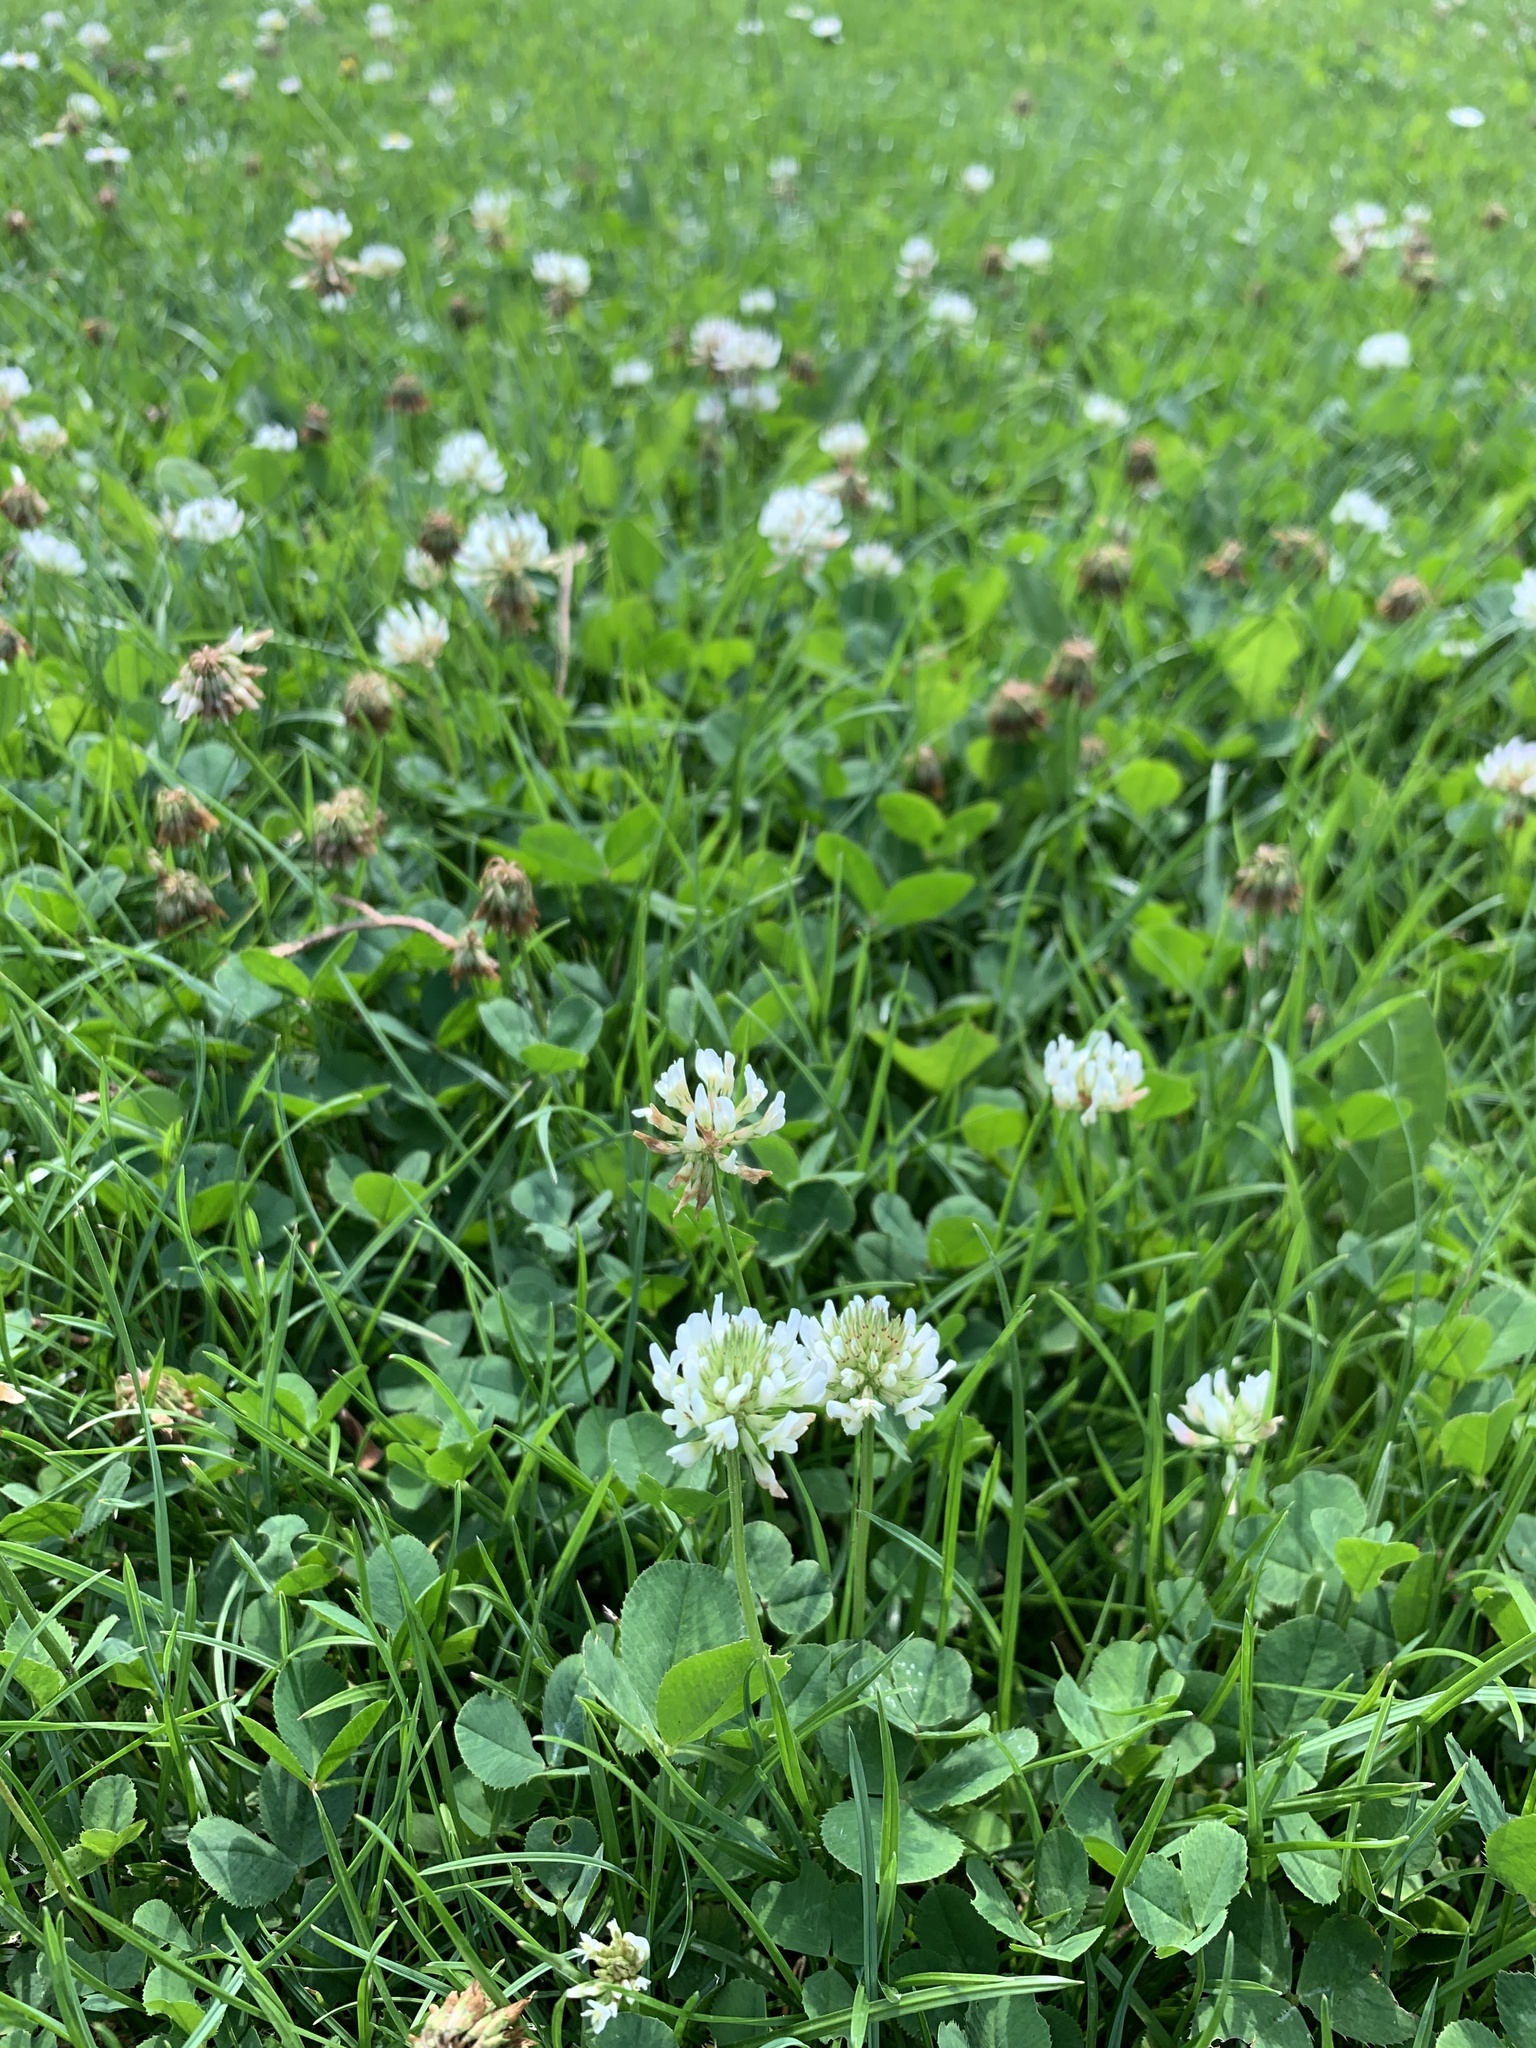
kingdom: Plantae
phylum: Tracheophyta
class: Magnoliopsida
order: Fabales
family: Fabaceae
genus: Trifolium
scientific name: Trifolium repens
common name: White clover
